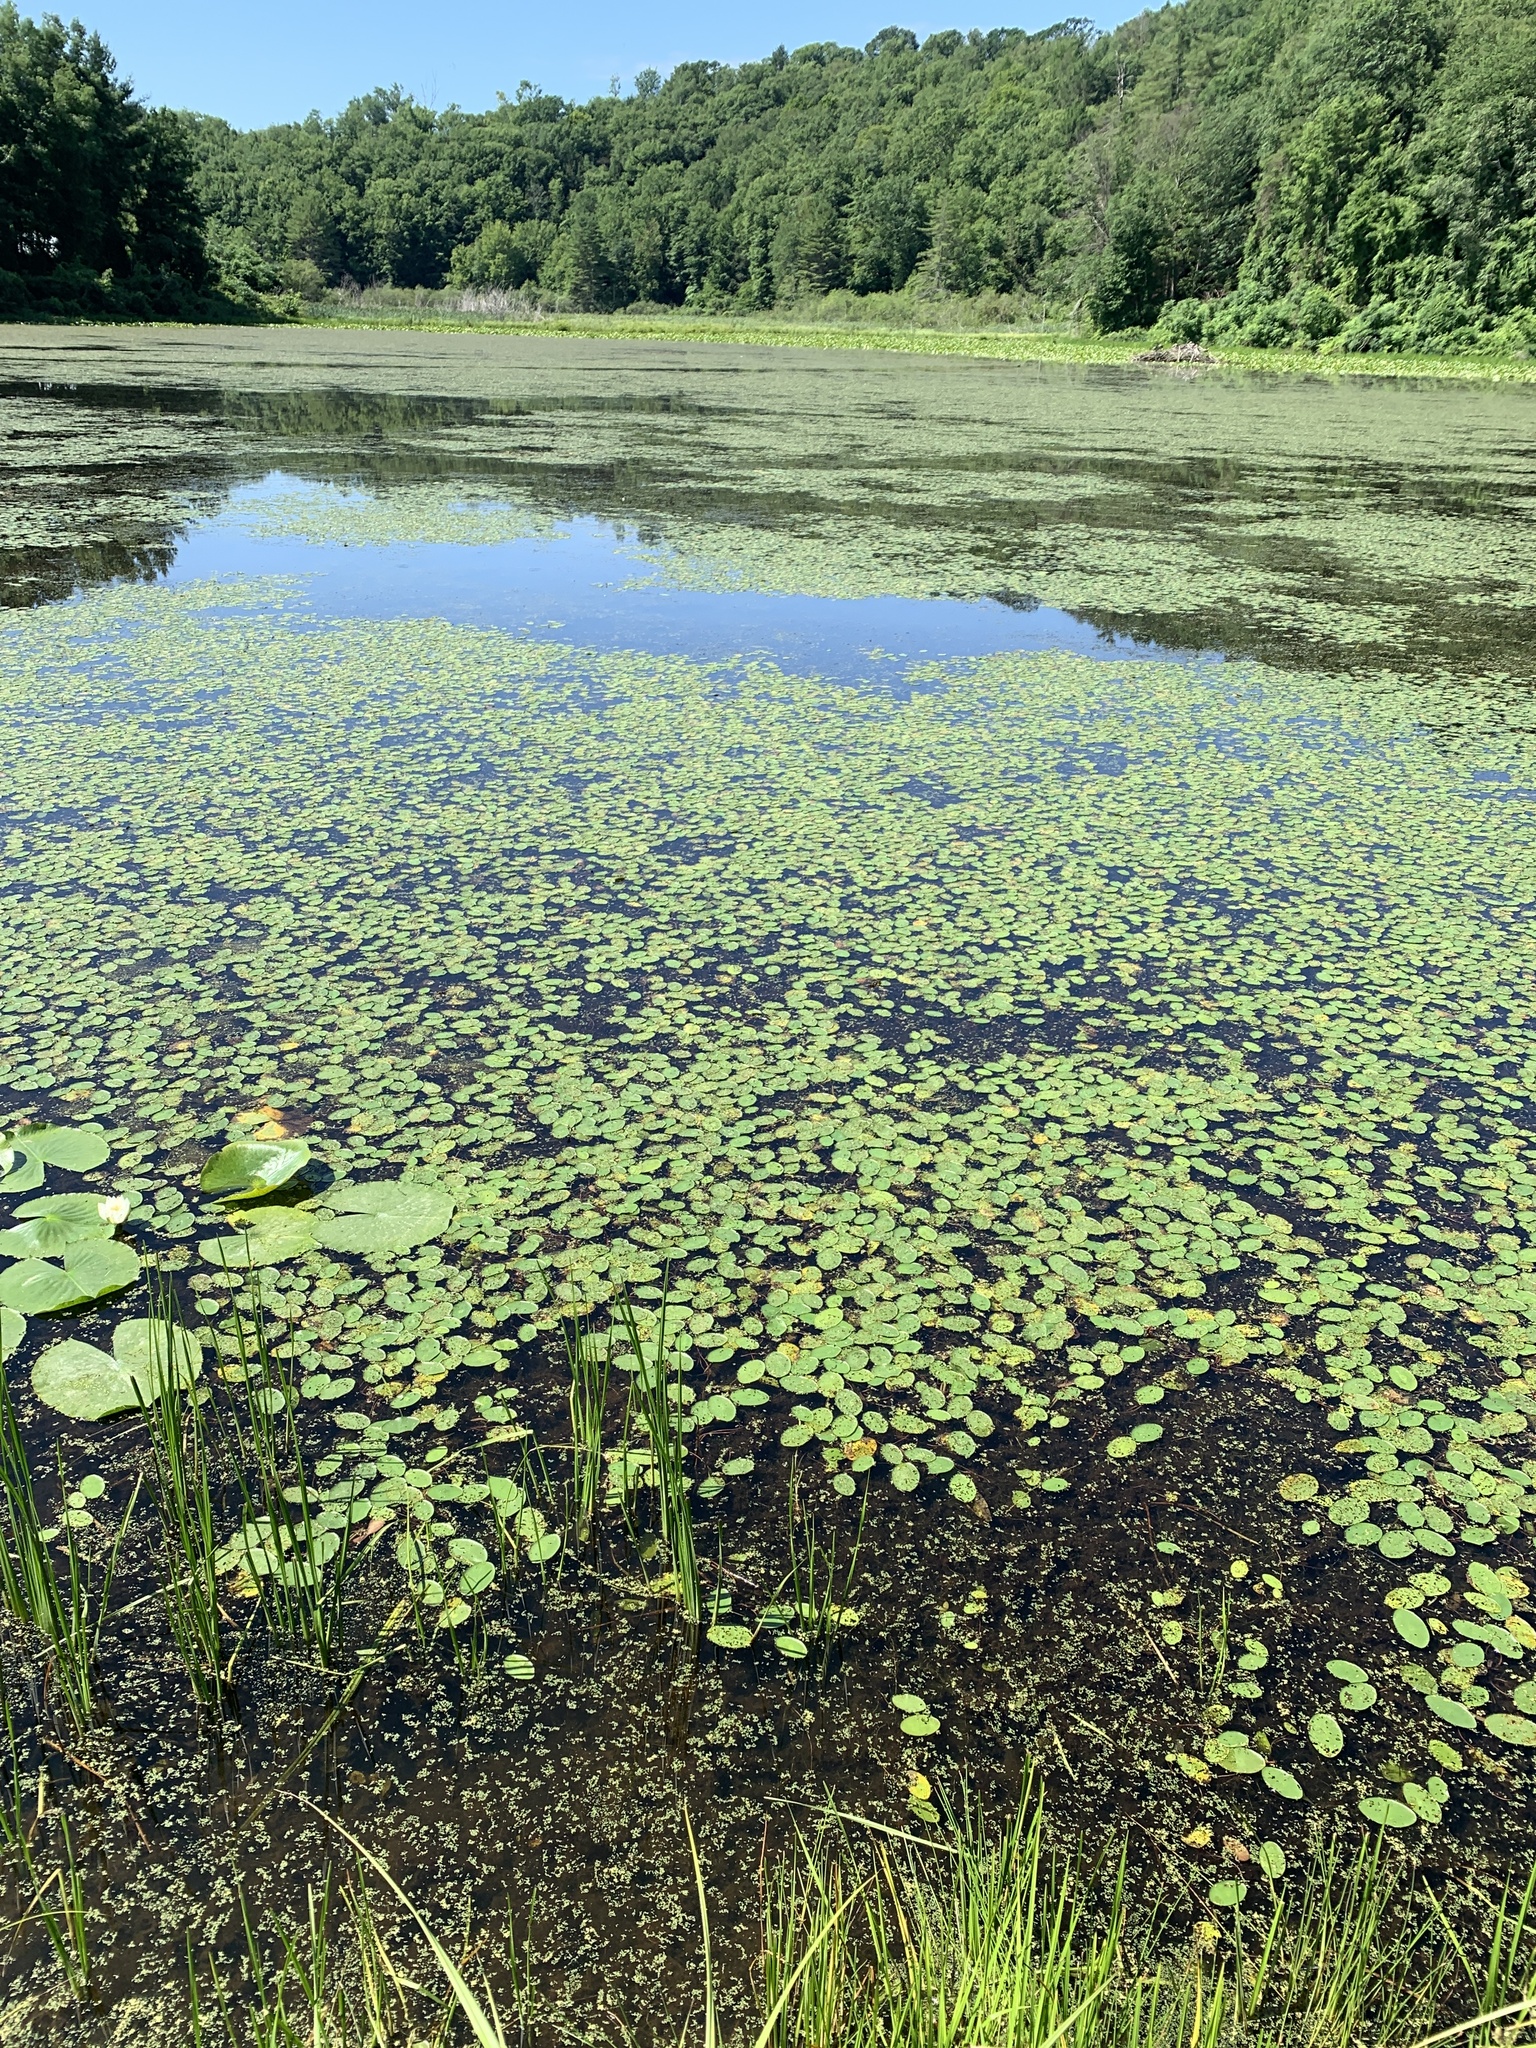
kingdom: Plantae
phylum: Tracheophyta
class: Magnoliopsida
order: Nymphaeales
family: Cabombaceae
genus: Brasenia
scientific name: Brasenia schreberi
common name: Water-shield
